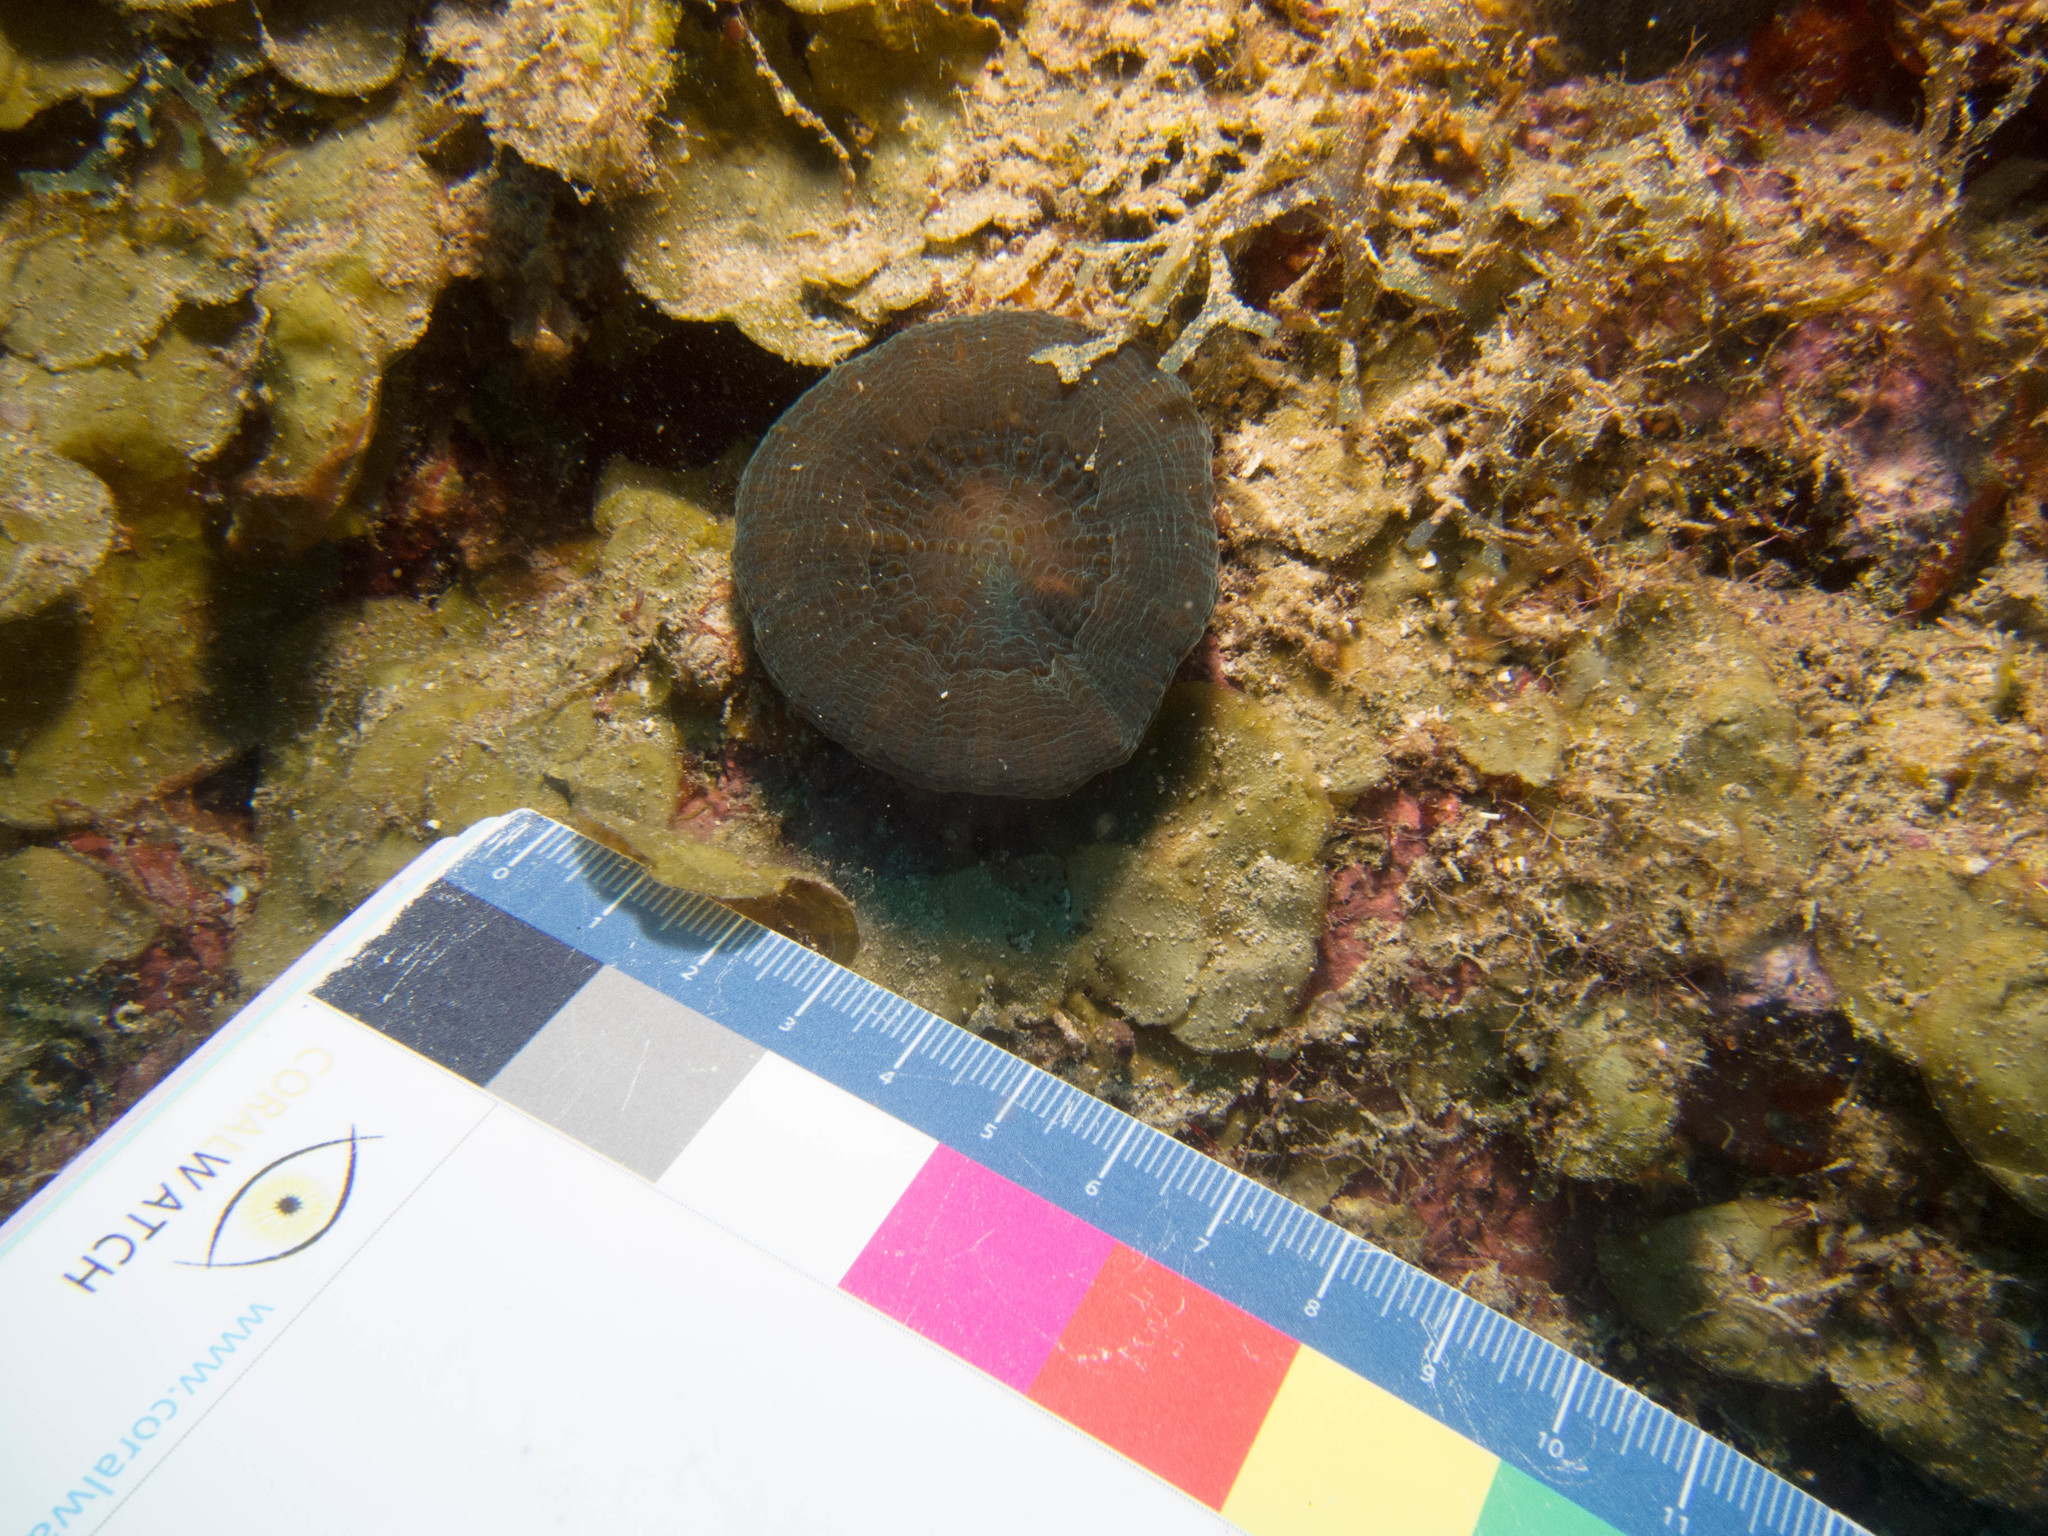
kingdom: Animalia
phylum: Cnidaria
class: Anthozoa
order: Scleractinia
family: Faviidae
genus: Scolymia
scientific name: Scolymia cubensis
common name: Artichoke coral
